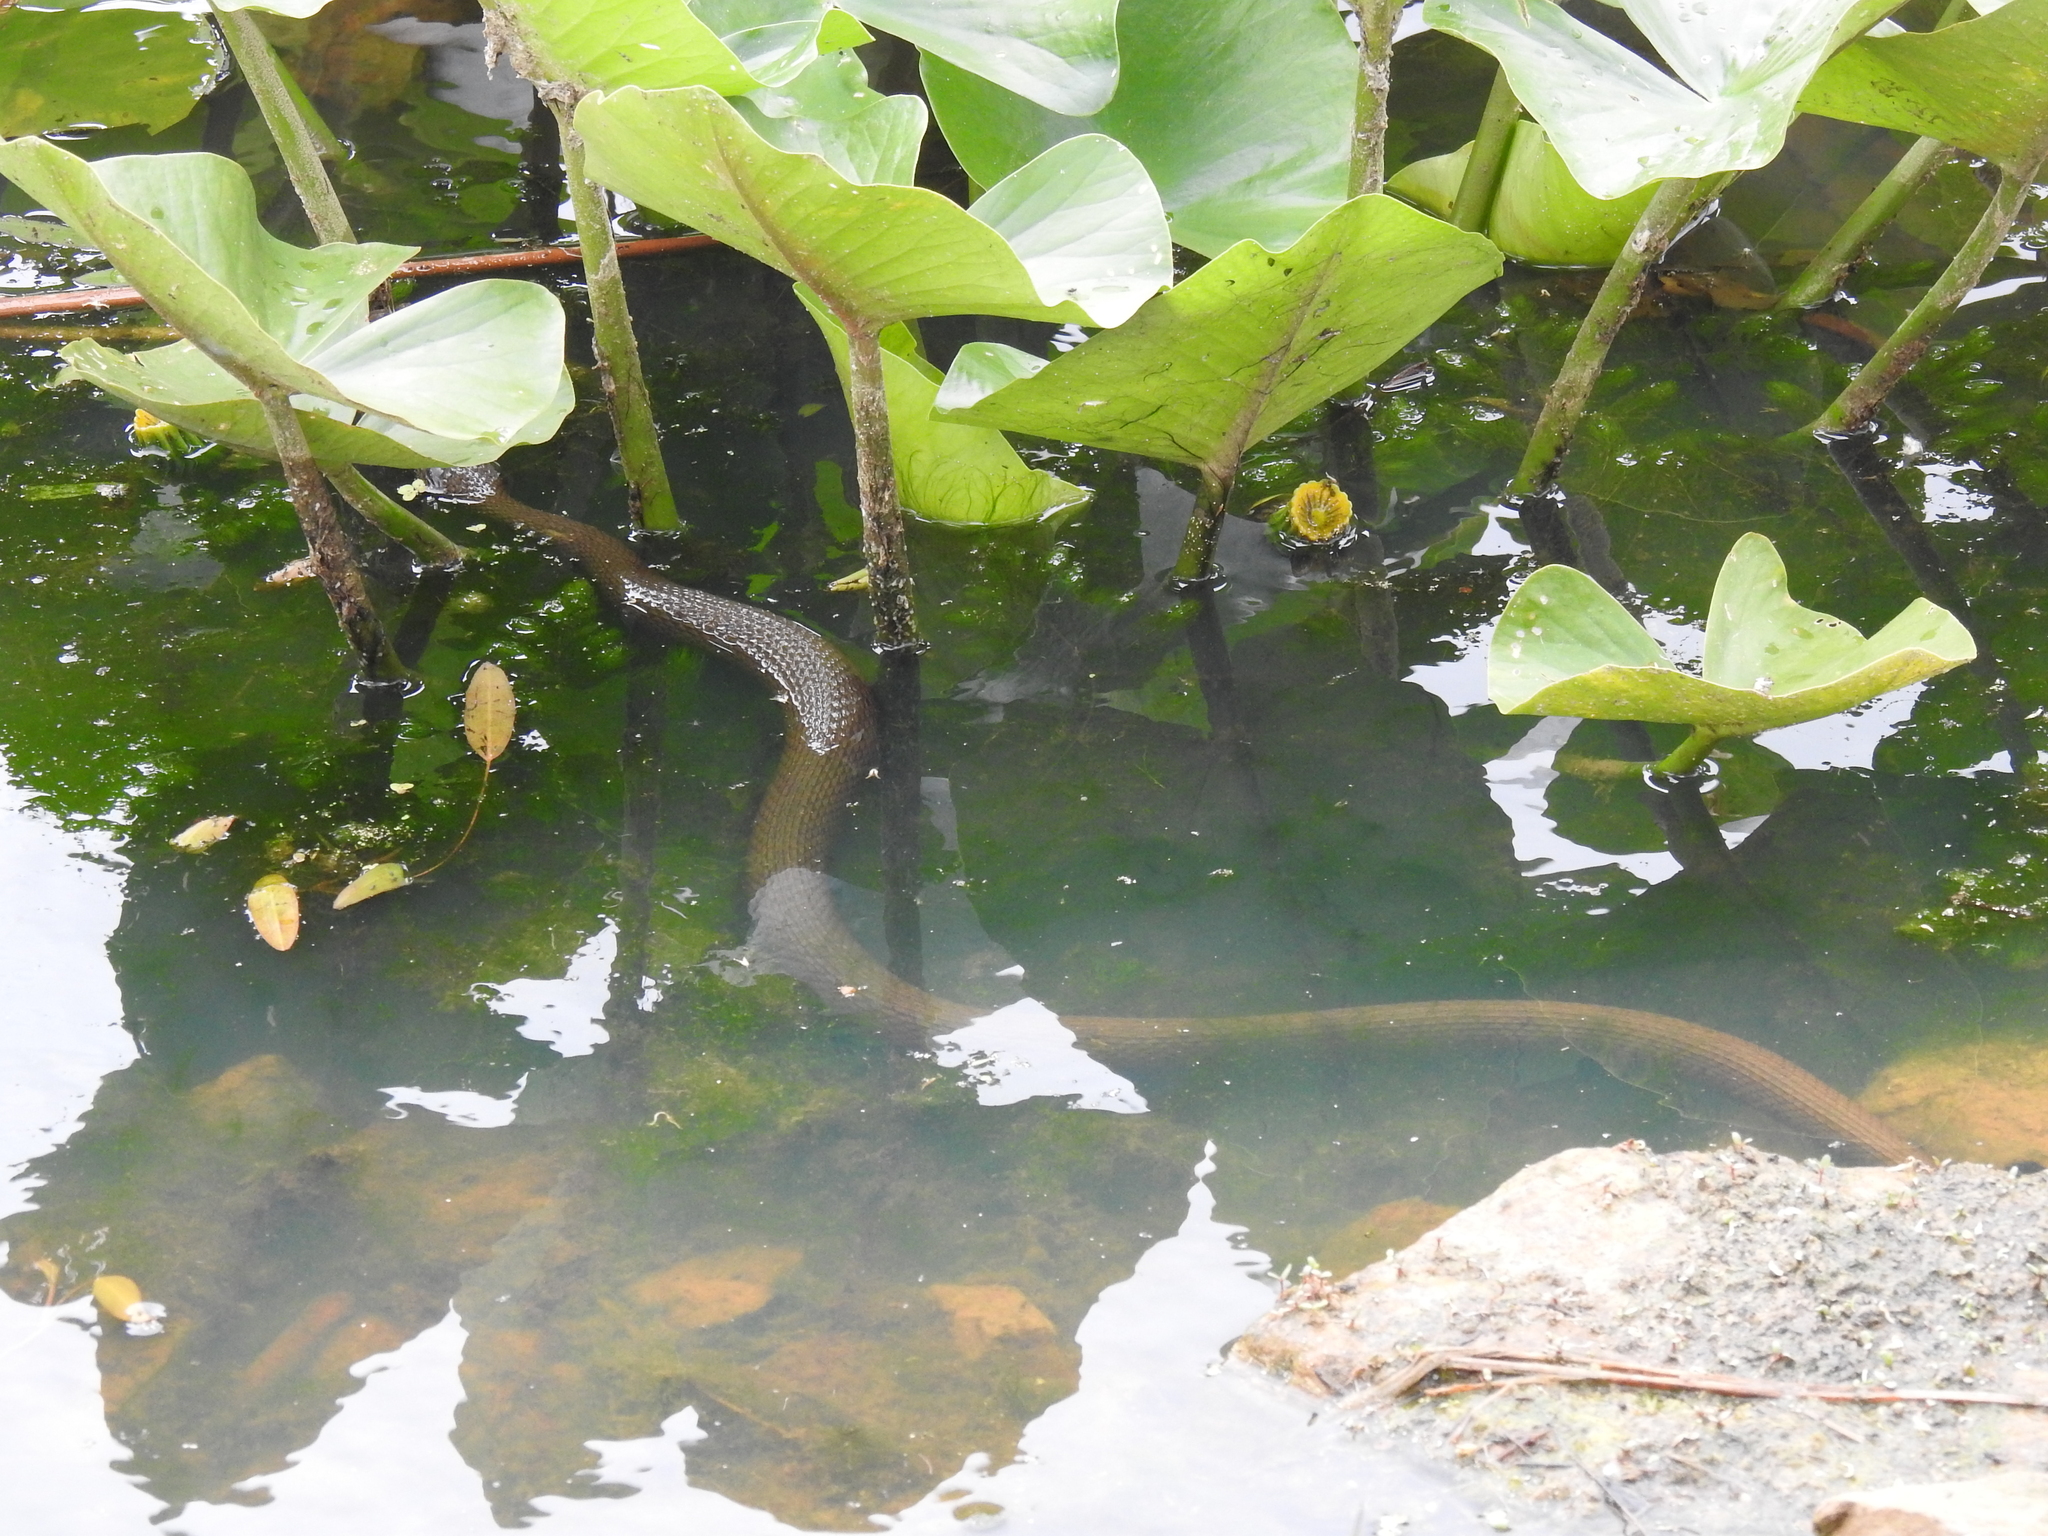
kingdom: Animalia
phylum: Chordata
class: Squamata
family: Colubridae
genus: Nerodia
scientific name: Nerodia sipedon
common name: Northern water snake
